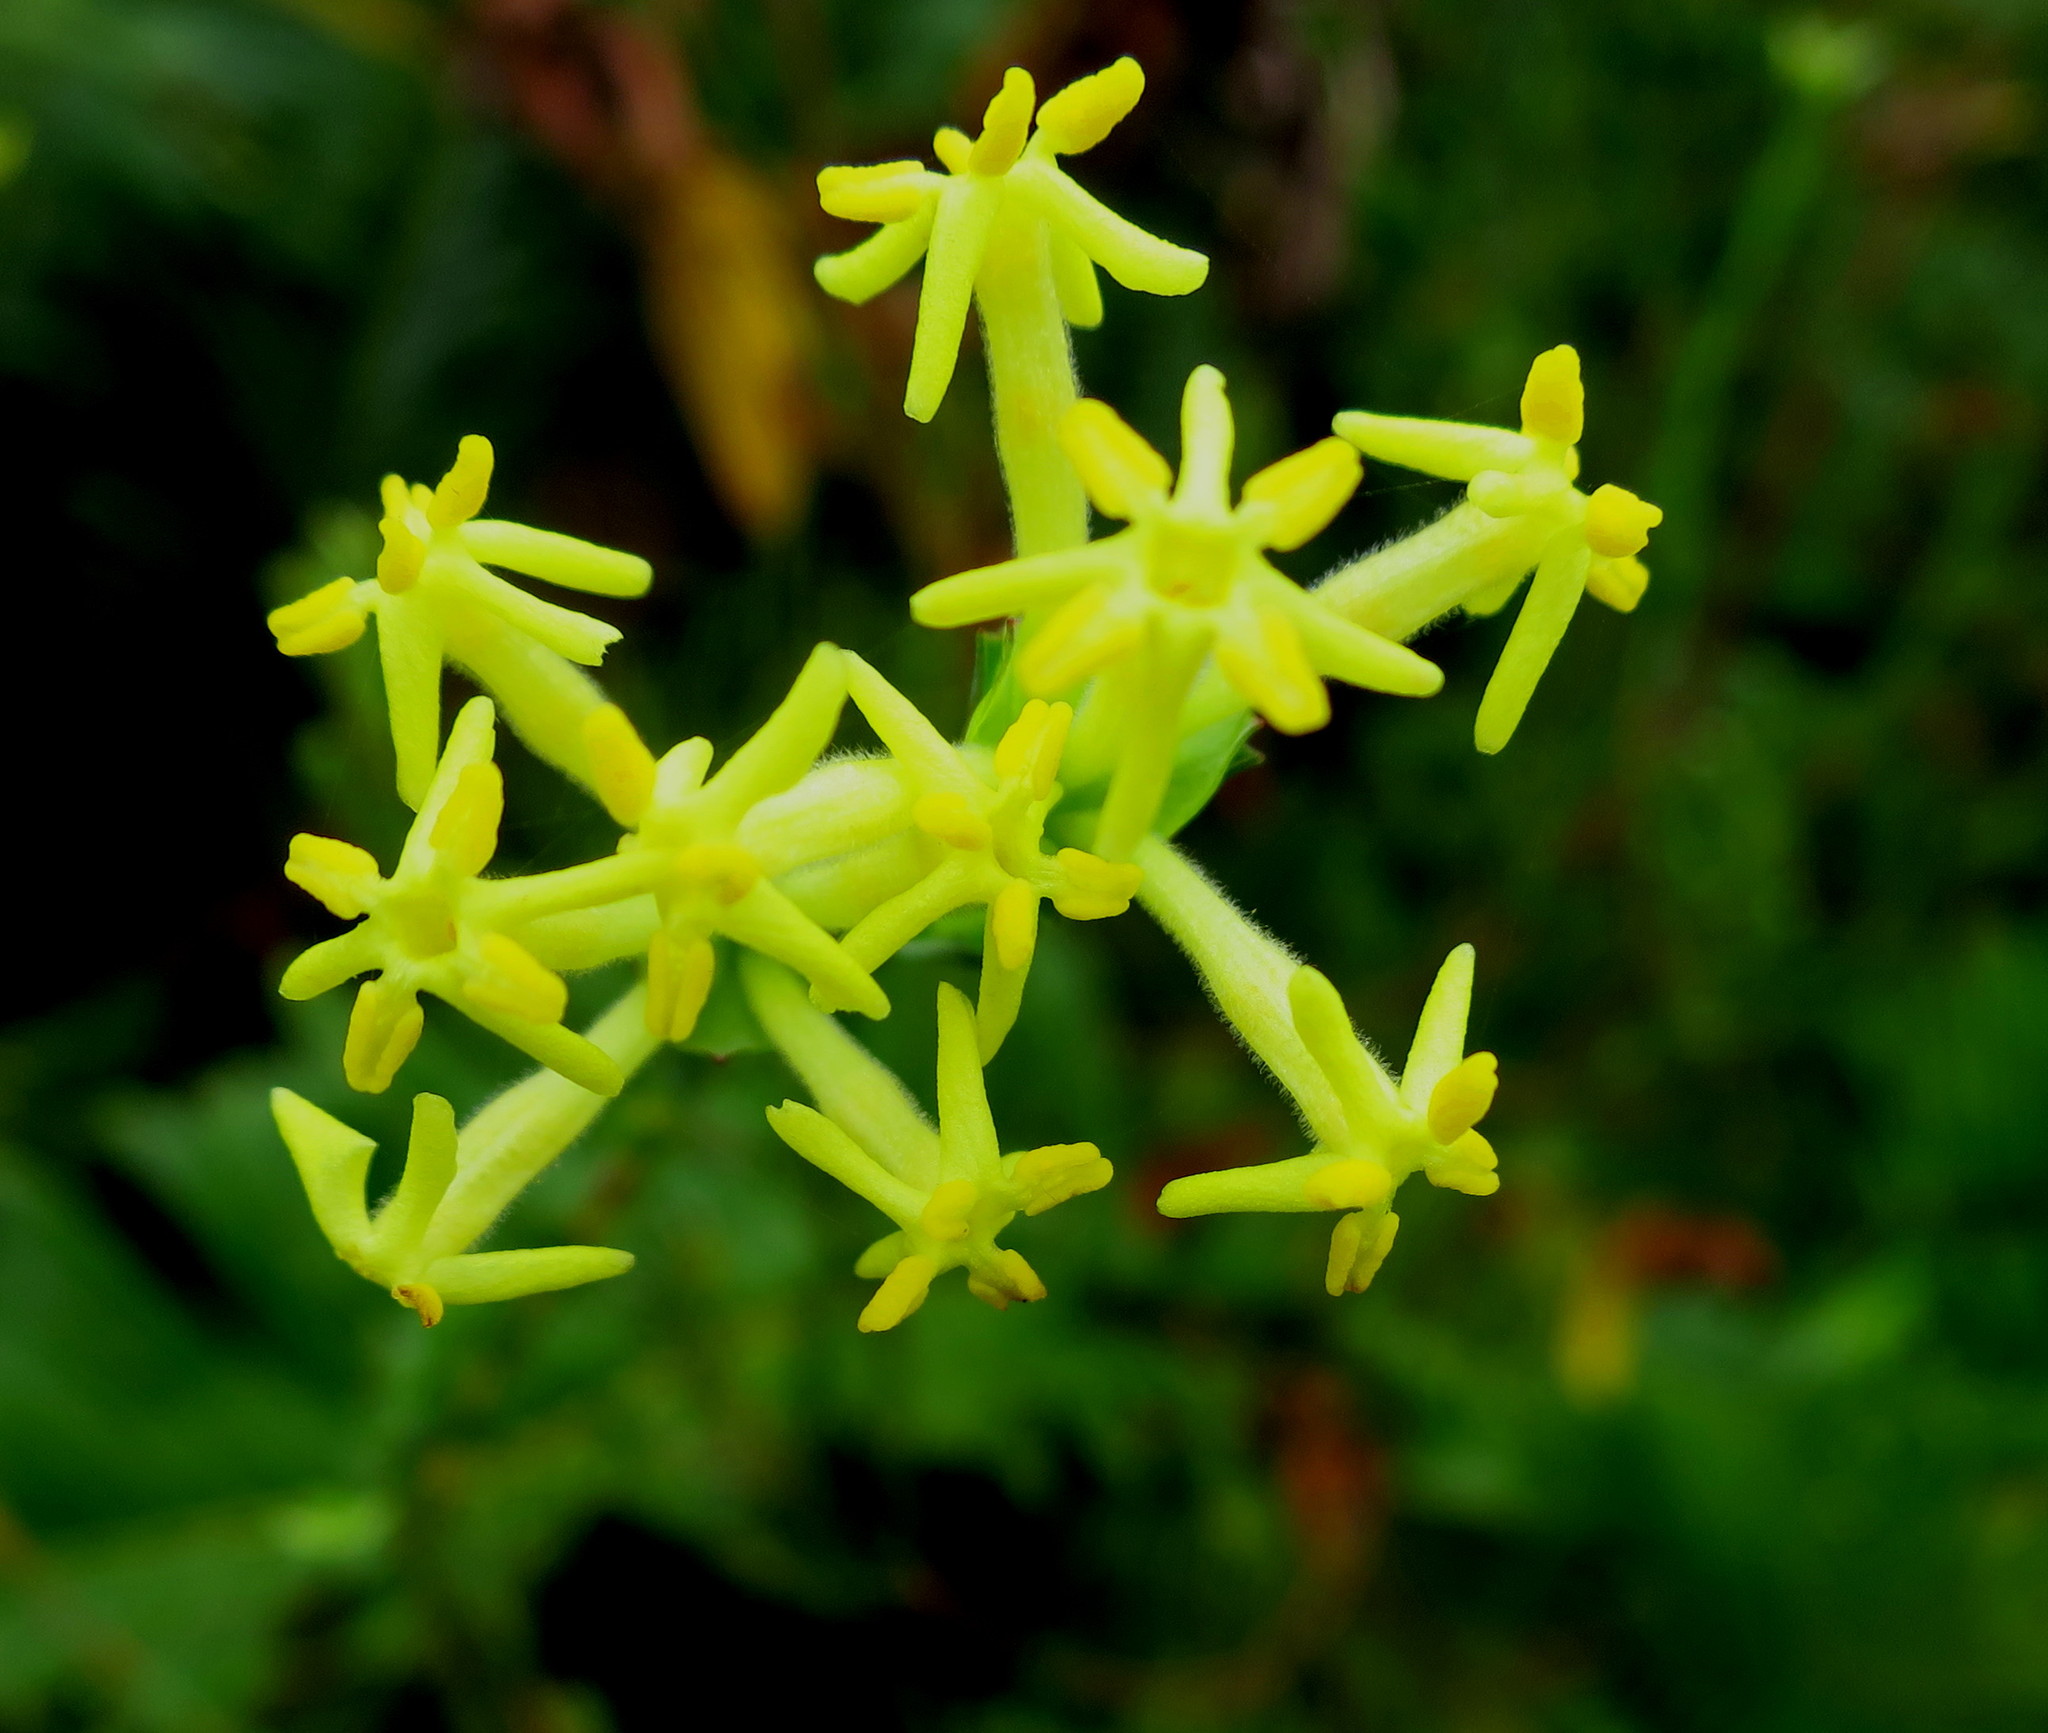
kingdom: Plantae
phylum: Tracheophyta
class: Magnoliopsida
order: Malvales
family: Thymelaeaceae
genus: Gnidia
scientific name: Gnidia oppositifolia
